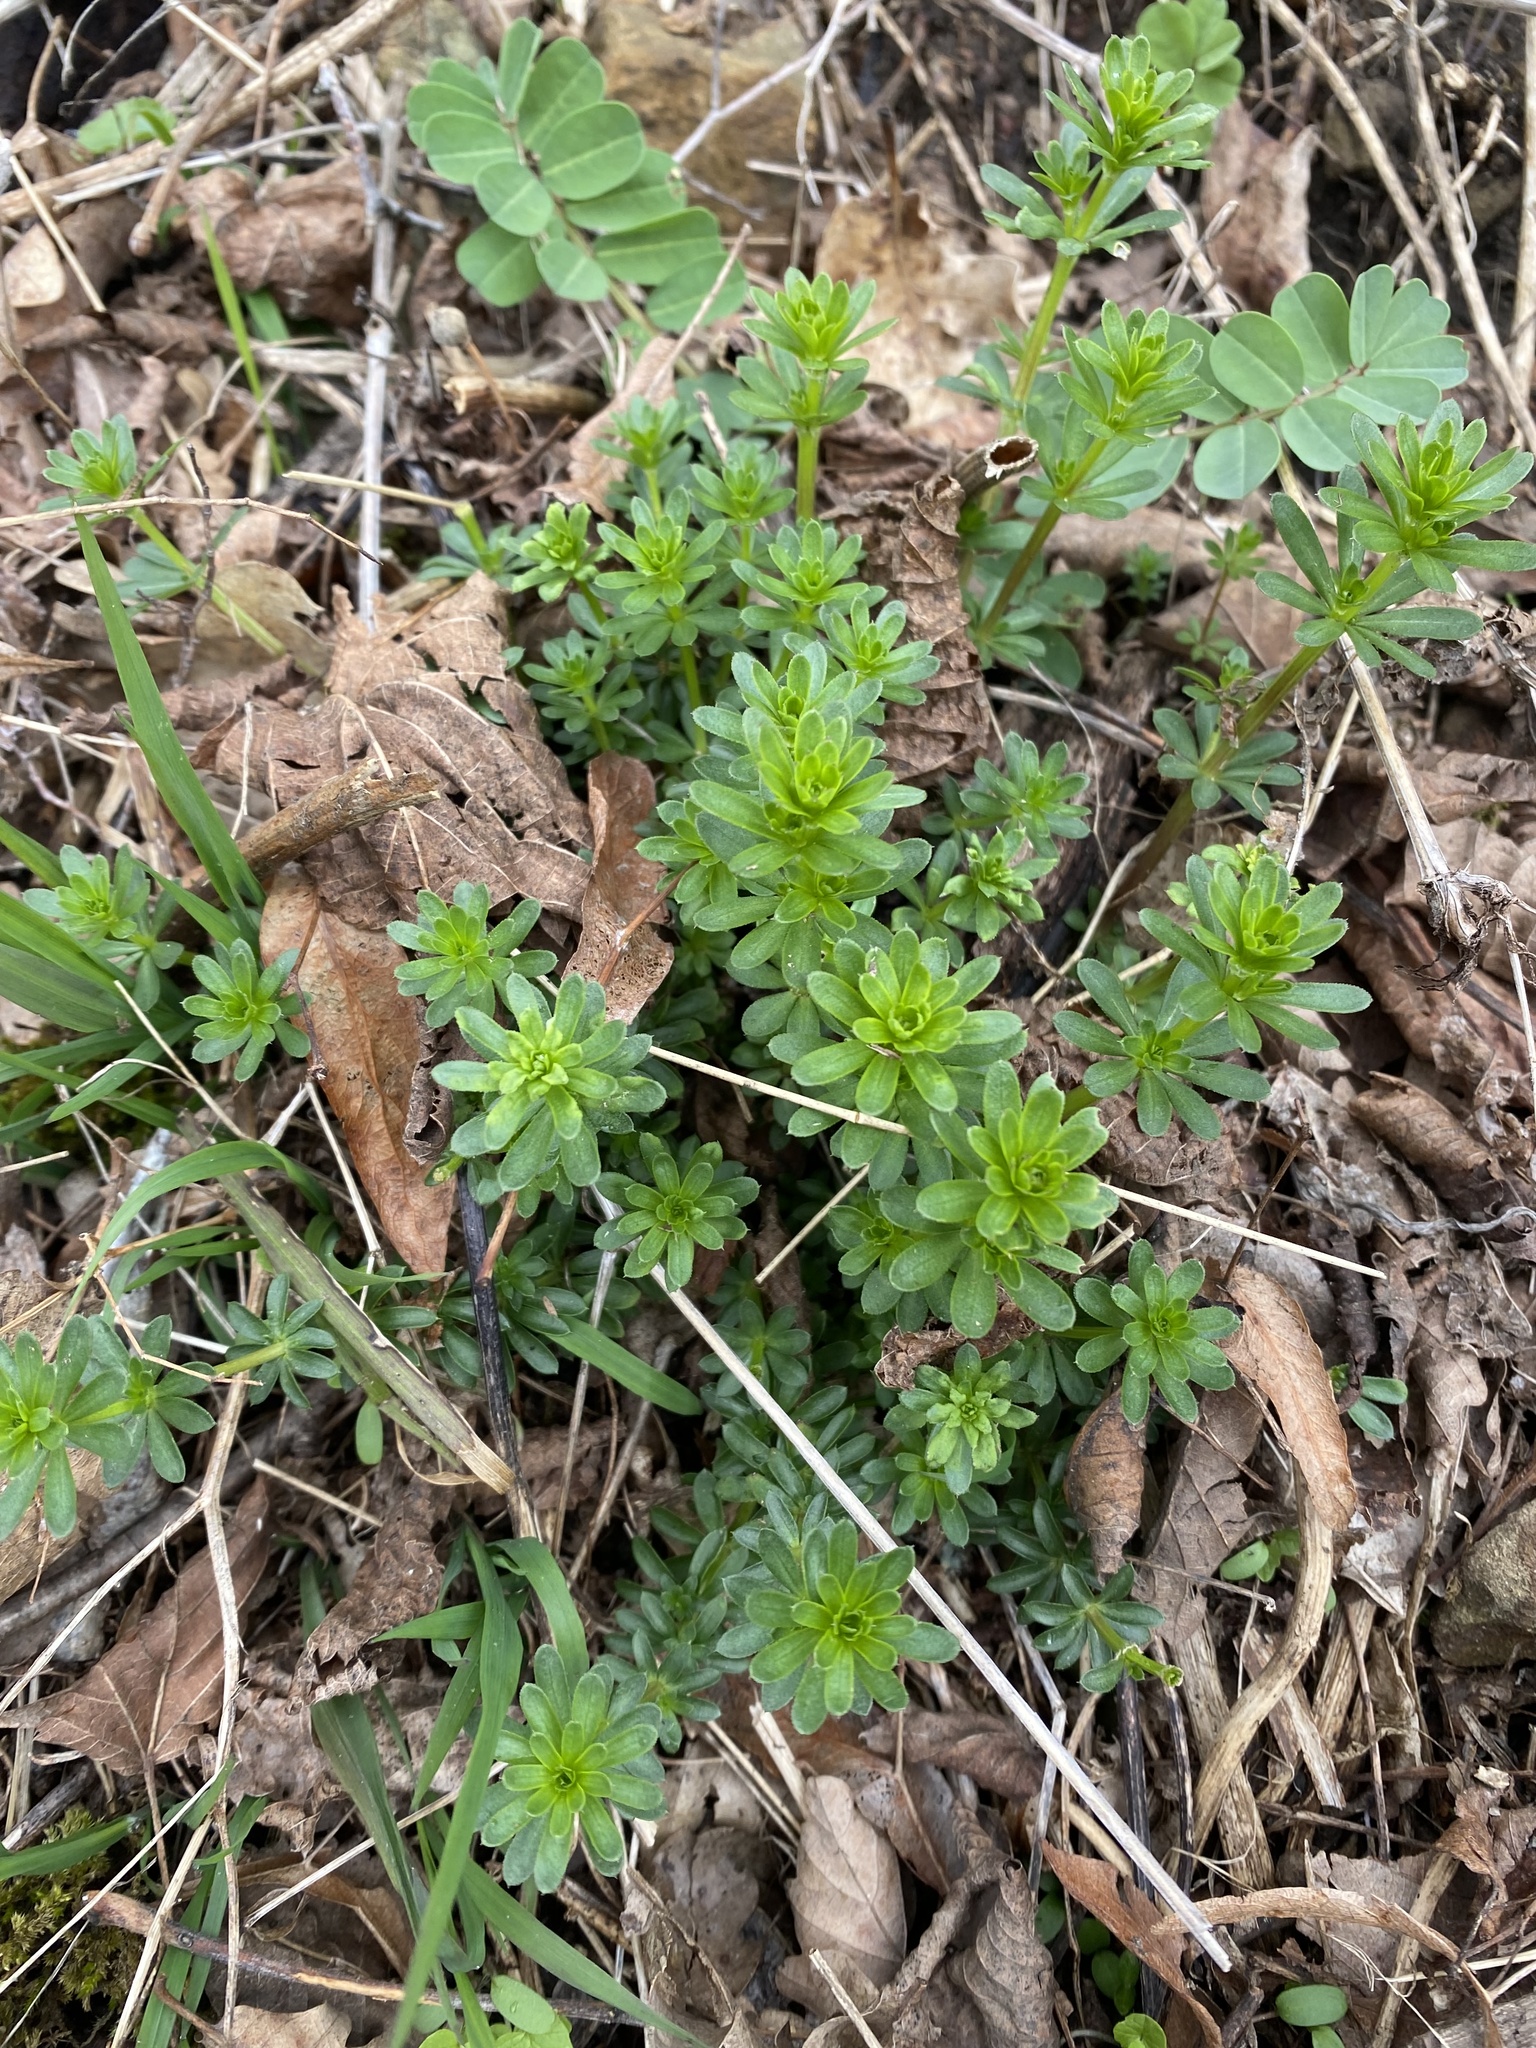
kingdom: Plantae
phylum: Tracheophyta
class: Magnoliopsida
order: Gentianales
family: Rubiaceae
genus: Galium
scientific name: Galium mollugo
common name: Hedge bedstraw
